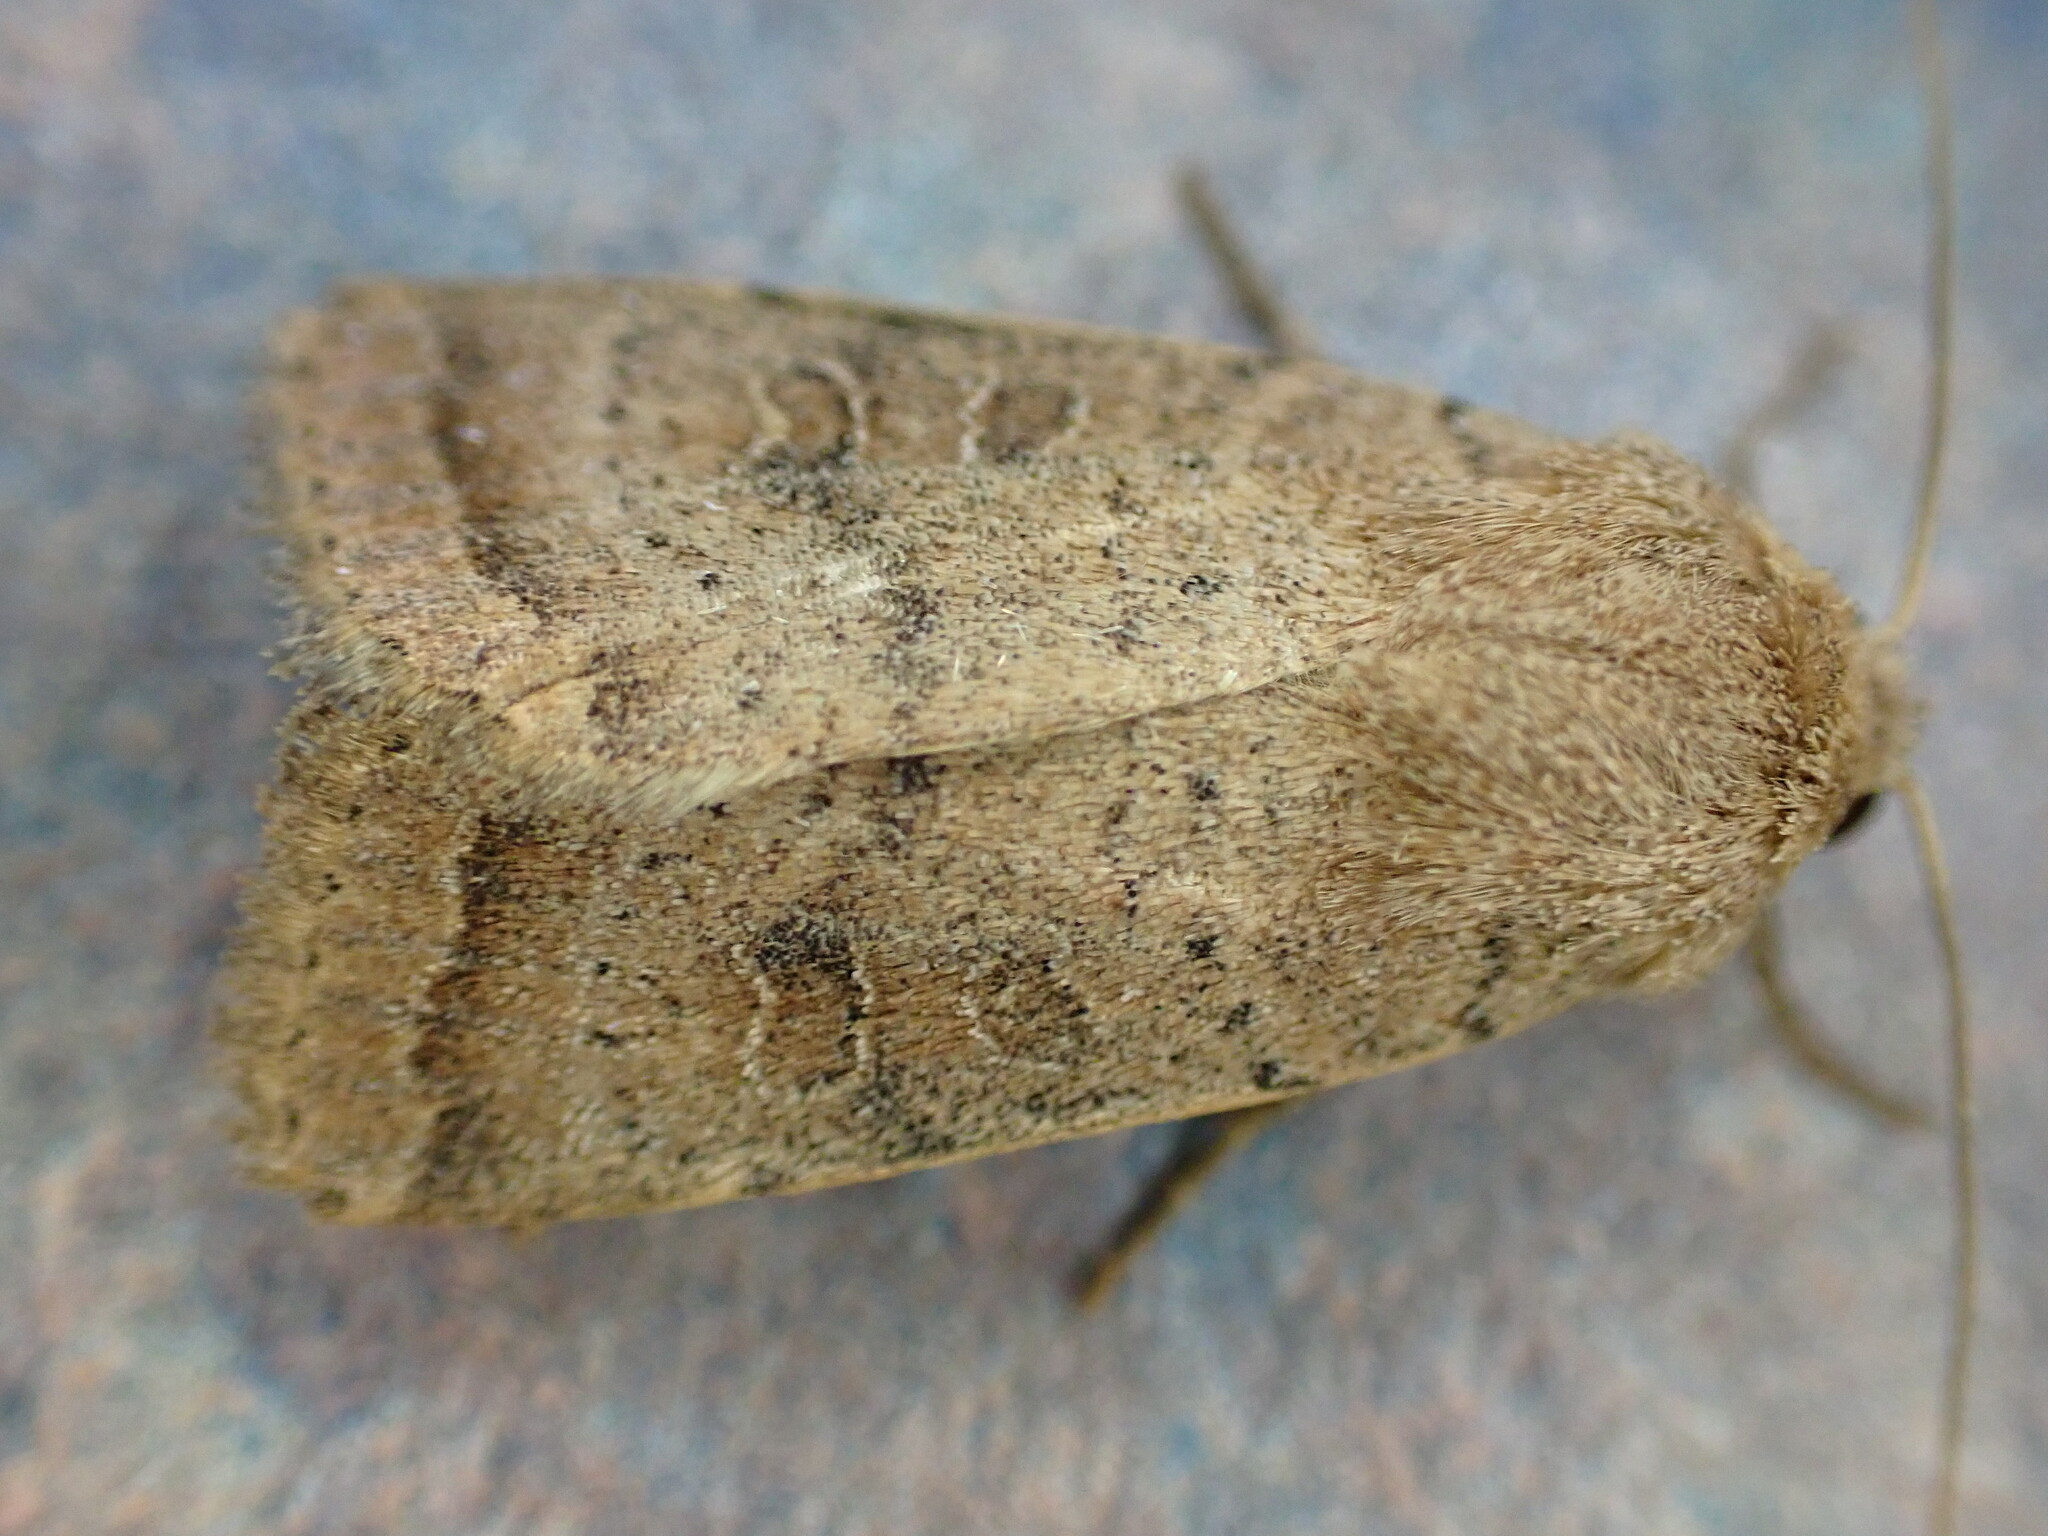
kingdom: Animalia
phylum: Arthropoda
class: Insecta
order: Lepidoptera
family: Noctuidae
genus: Hoplodrina
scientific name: Hoplodrina octogenaria
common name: Uncertain
